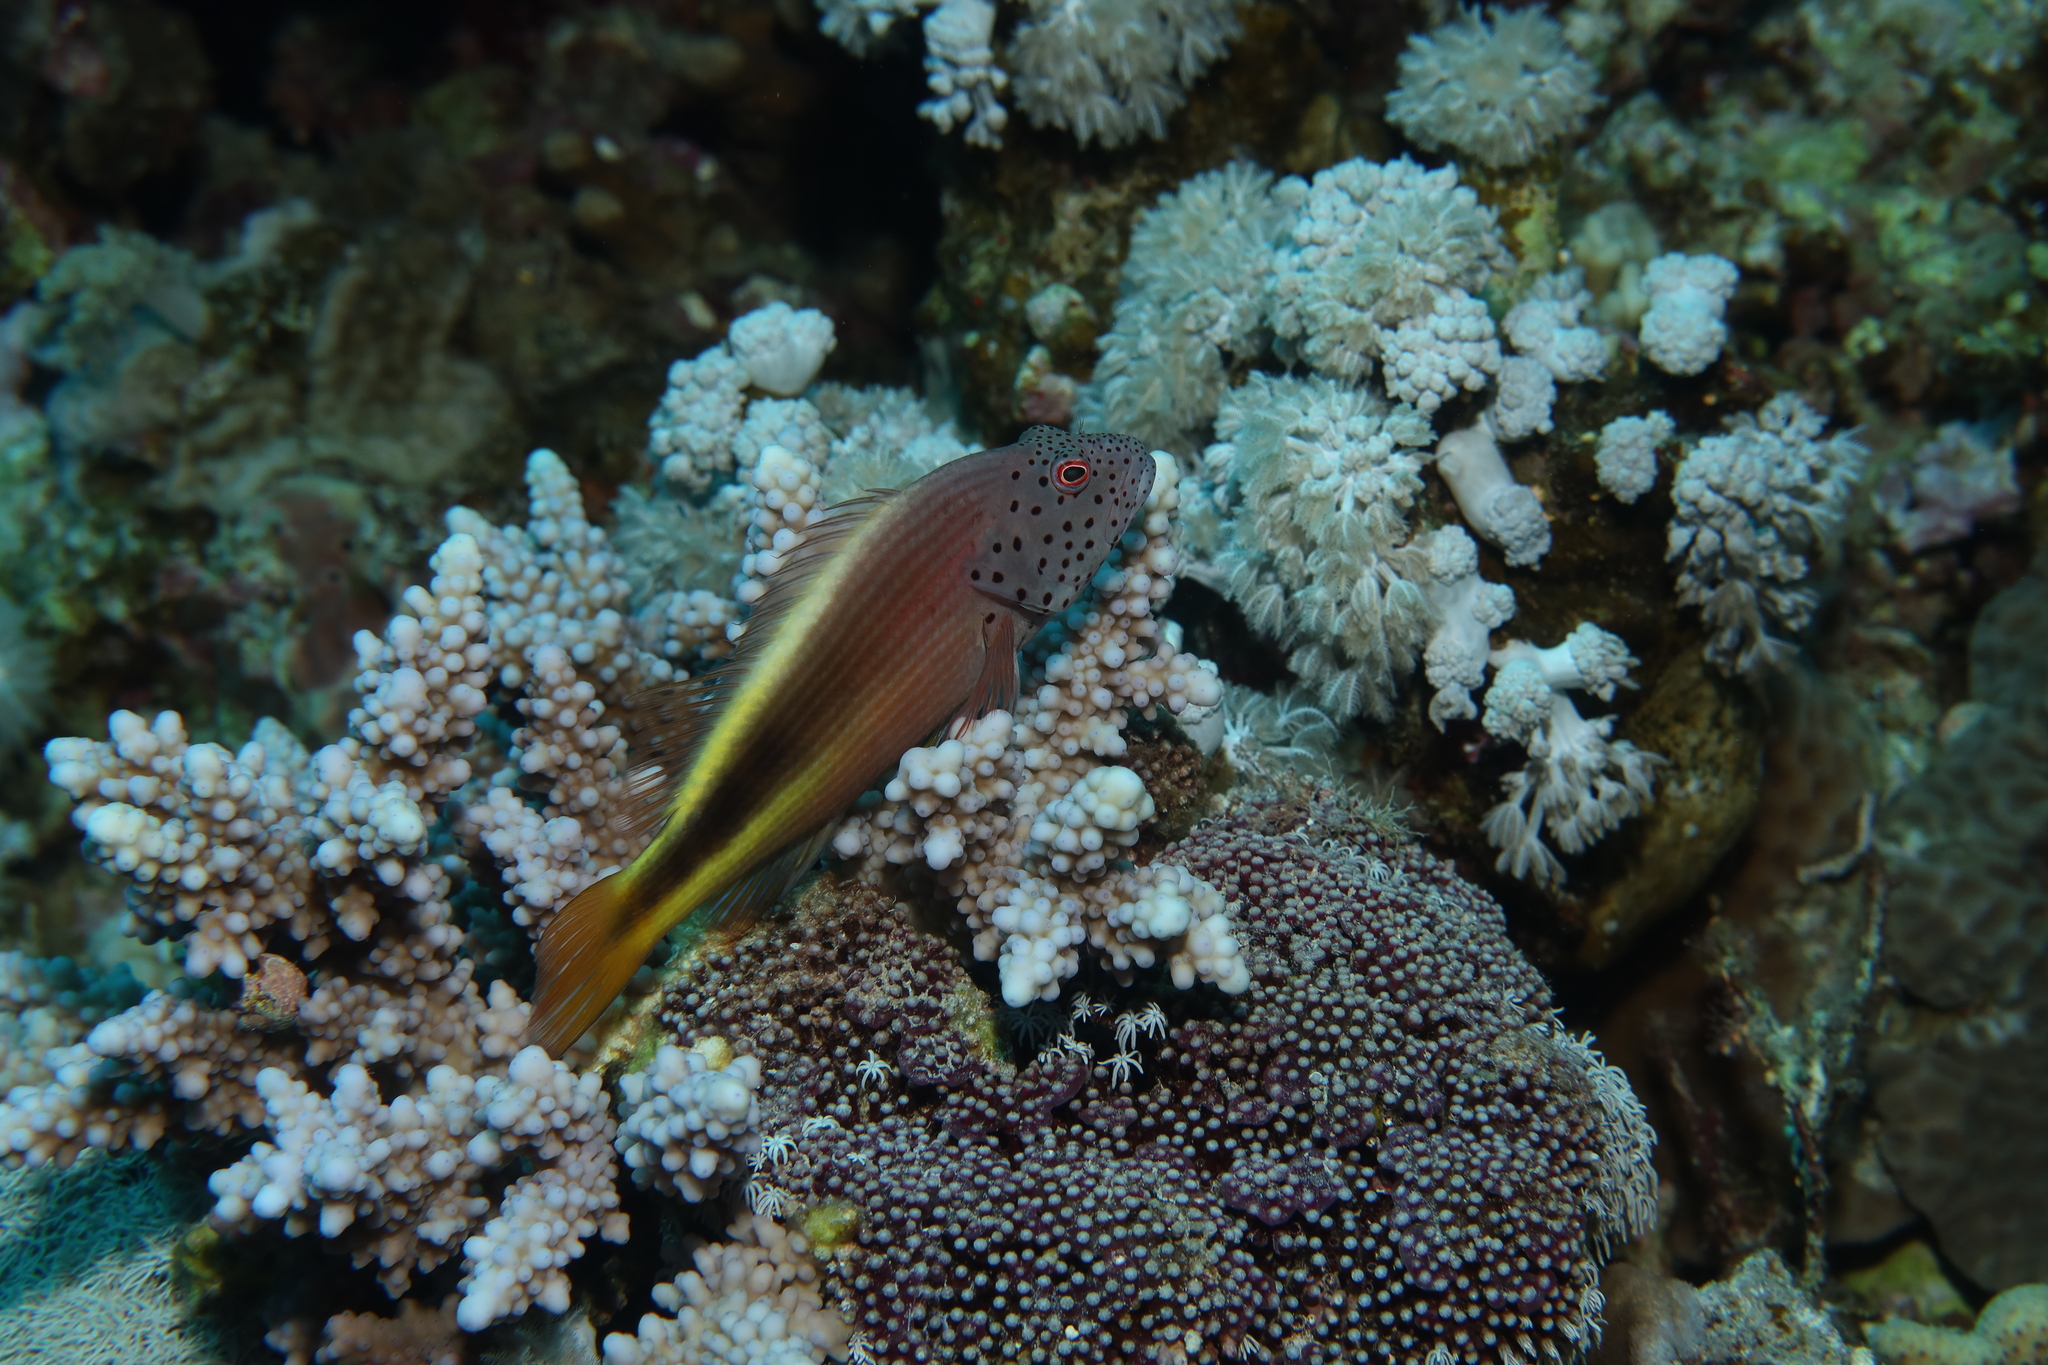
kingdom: Animalia
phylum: Chordata
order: Perciformes
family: Cirrhitidae
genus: Paracirrhites
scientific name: Paracirrhites forsteri
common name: Freckled hawkfish
